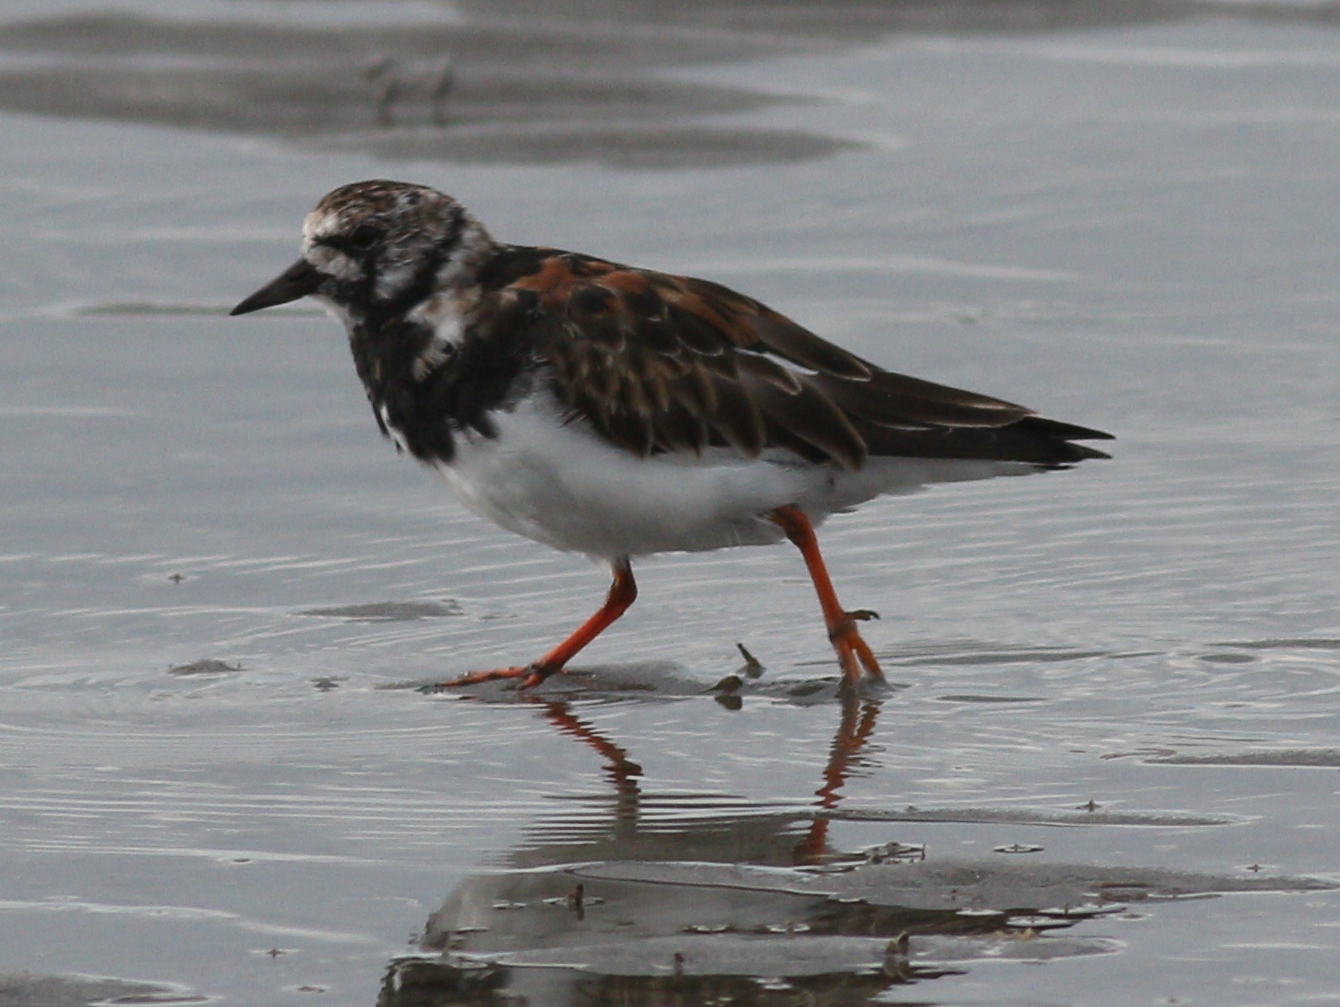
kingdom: Animalia
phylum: Chordata
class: Aves
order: Charadriiformes
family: Scolopacidae
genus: Arenaria
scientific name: Arenaria interpres
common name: Ruddy turnstone
